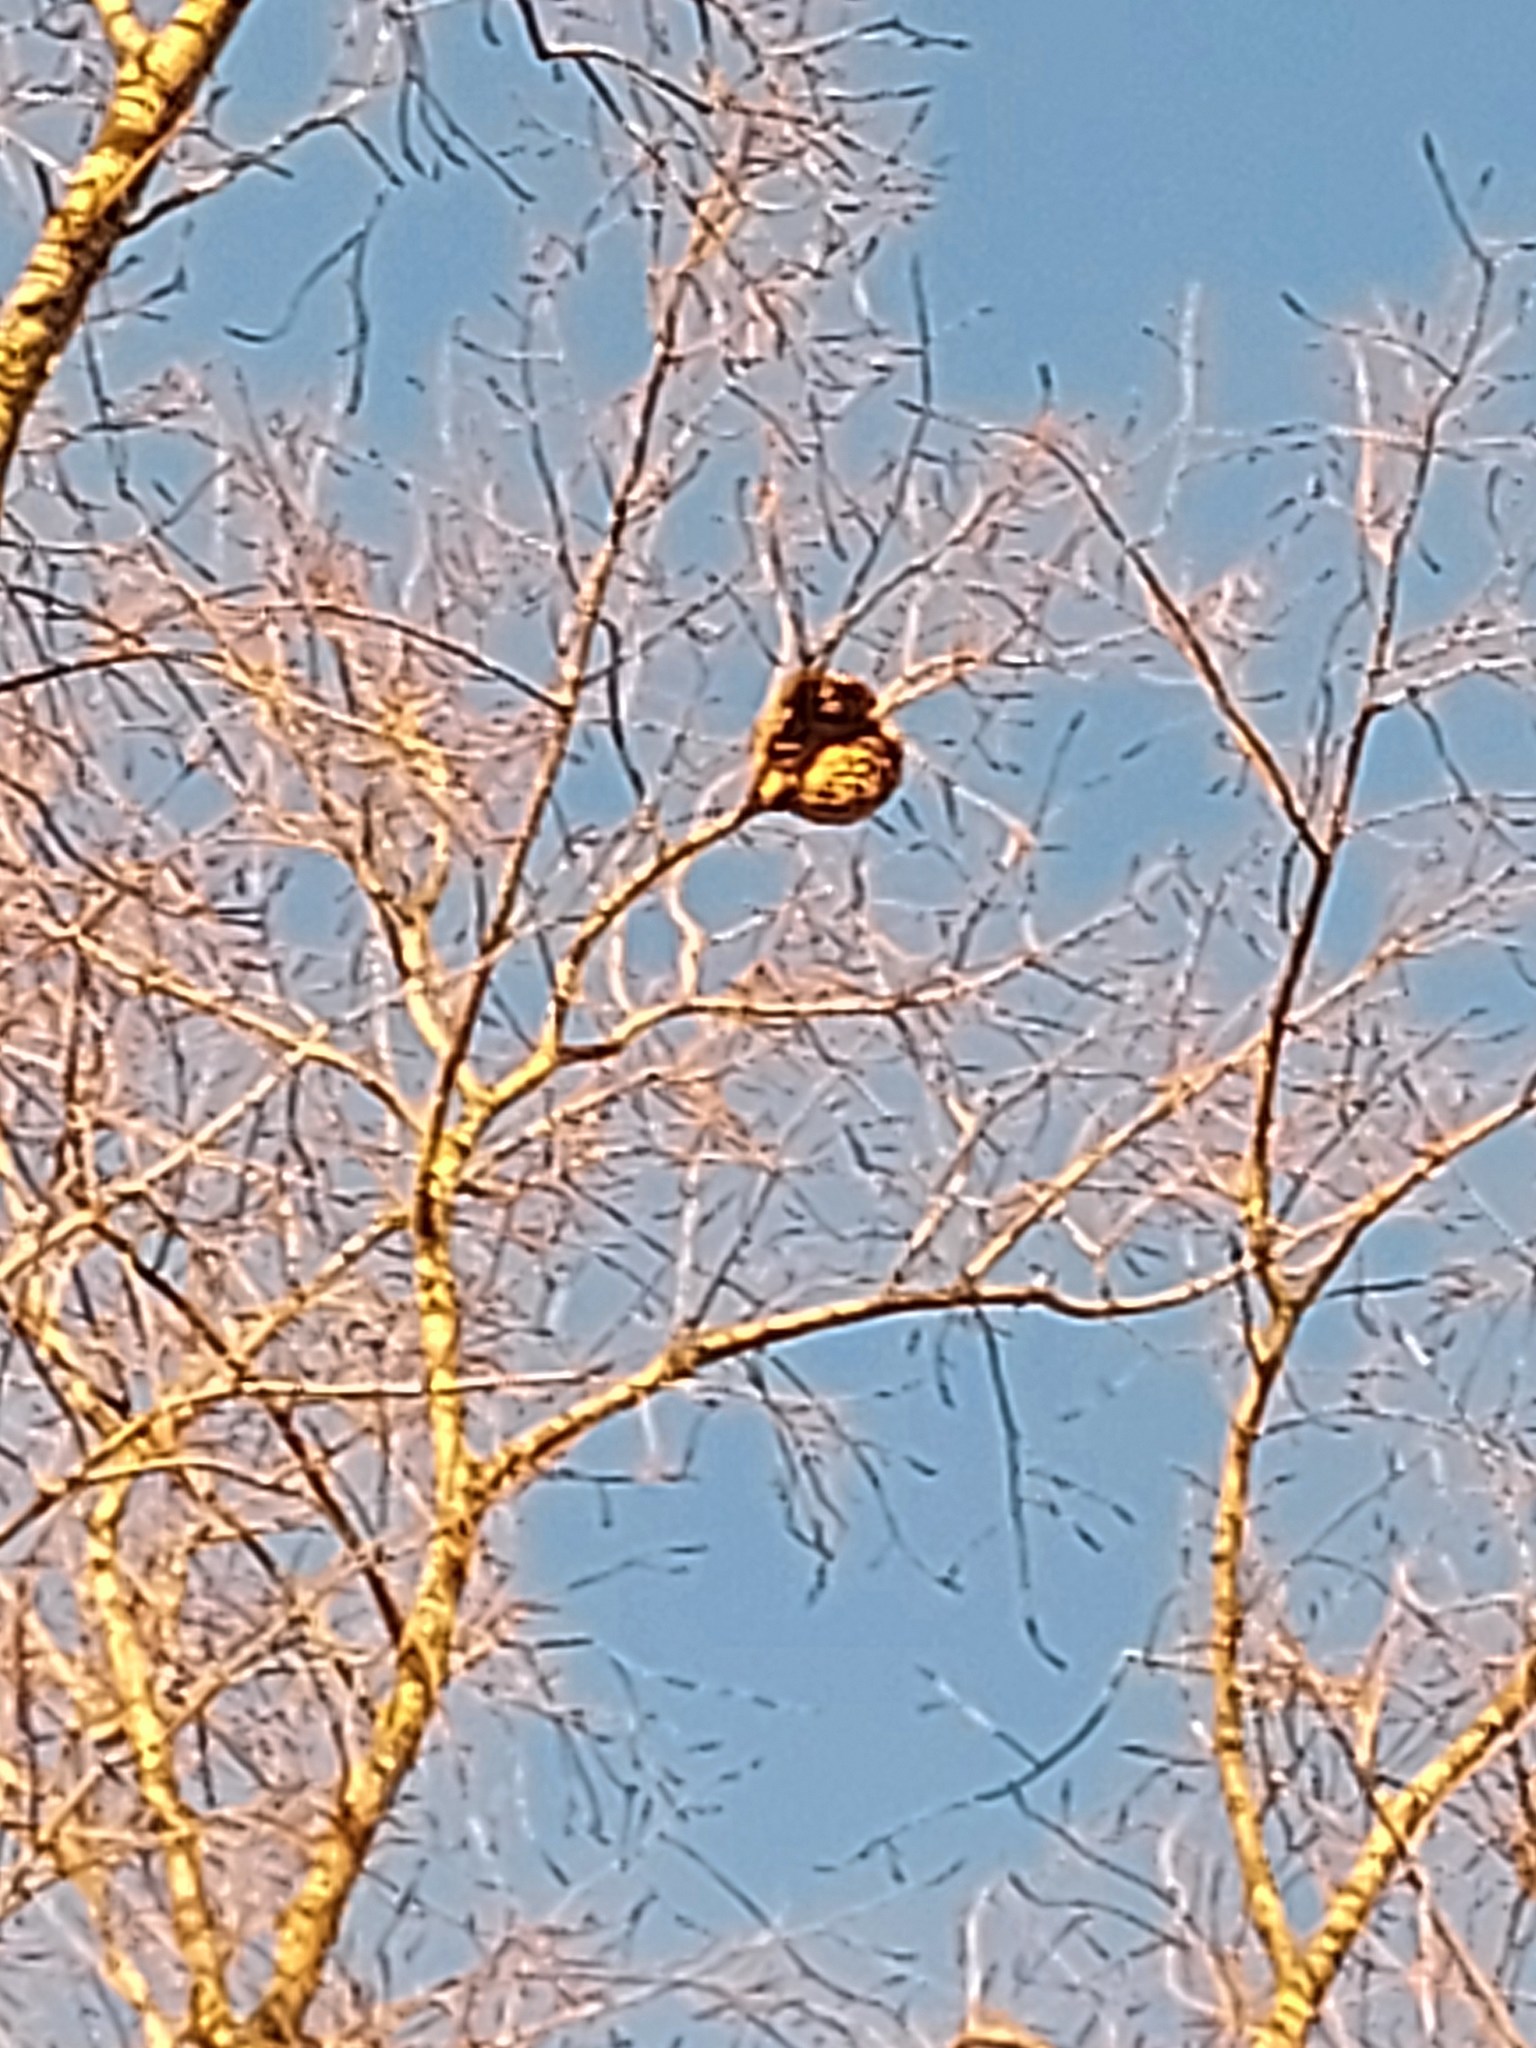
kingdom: Animalia
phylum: Arthropoda
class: Insecta
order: Hymenoptera
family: Vespidae
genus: Vespa
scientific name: Vespa velutina
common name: Asian hornet
